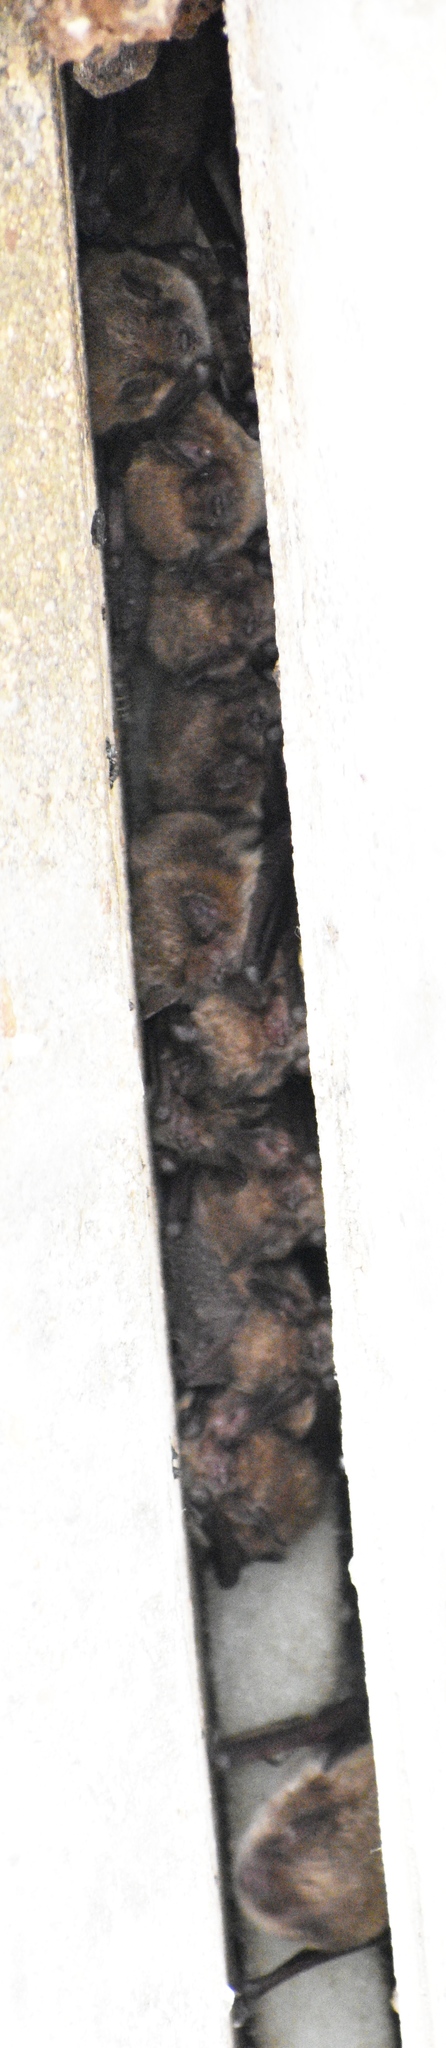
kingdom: Animalia
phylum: Chordata
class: Mammalia
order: Chiroptera
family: Vespertilionidae
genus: Eptesicus
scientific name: Eptesicus fuscus
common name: Big brown bat
